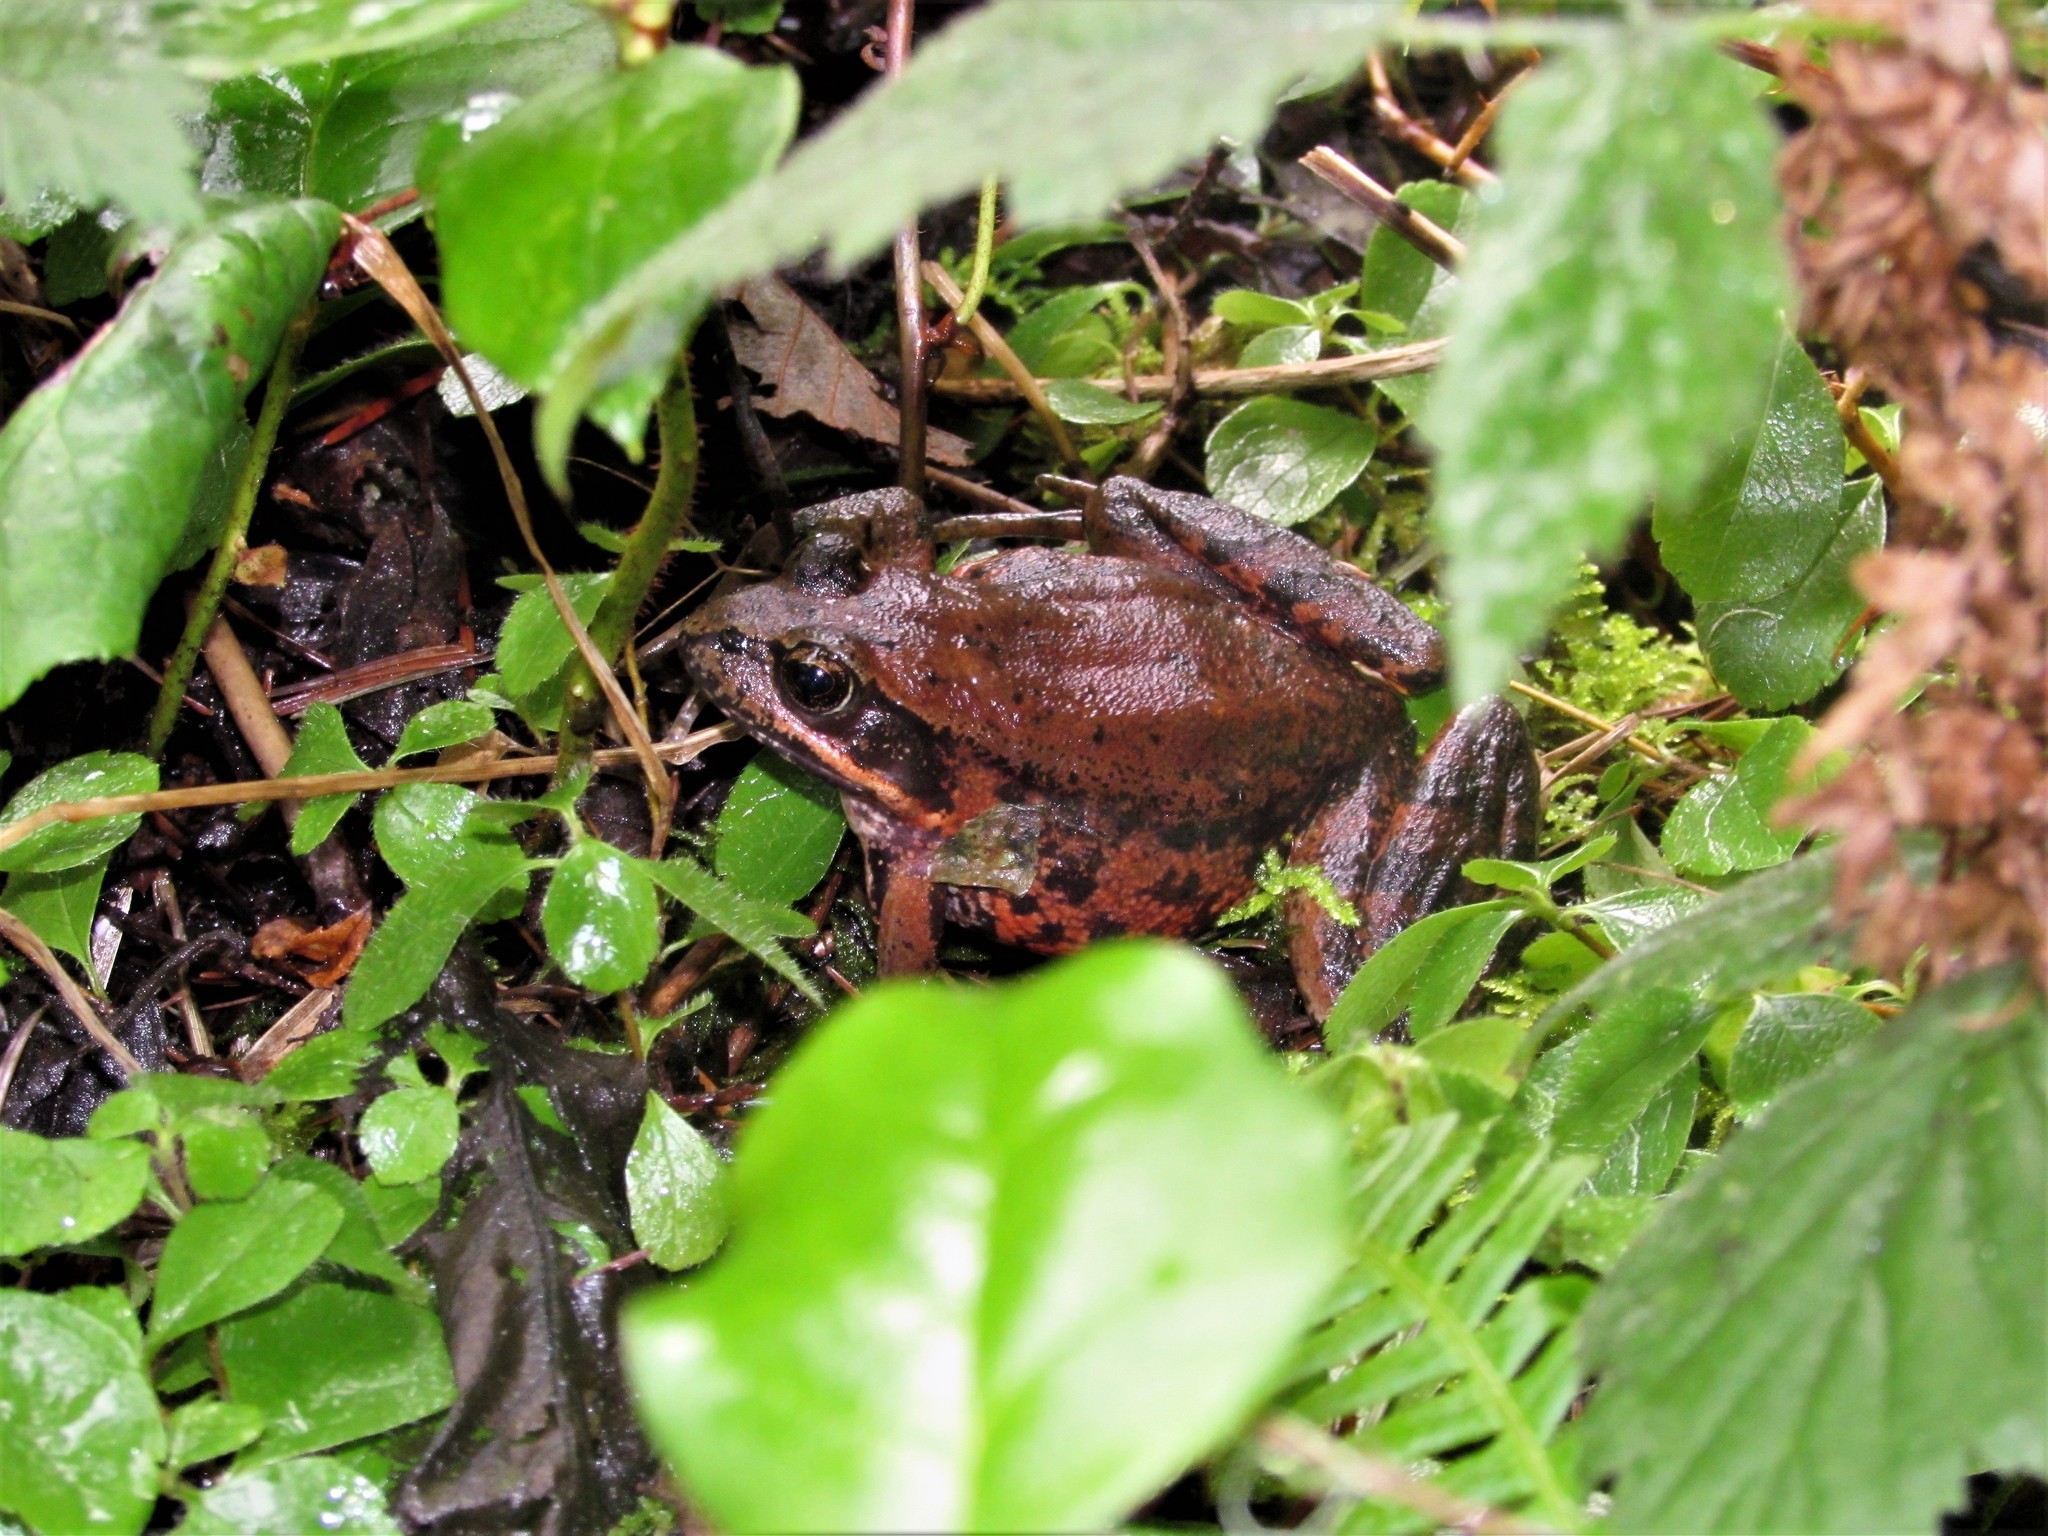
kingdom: Animalia
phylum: Chordata
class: Amphibia
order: Anura
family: Ranidae
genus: Rana
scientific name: Rana aurora
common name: Red-legged frog
